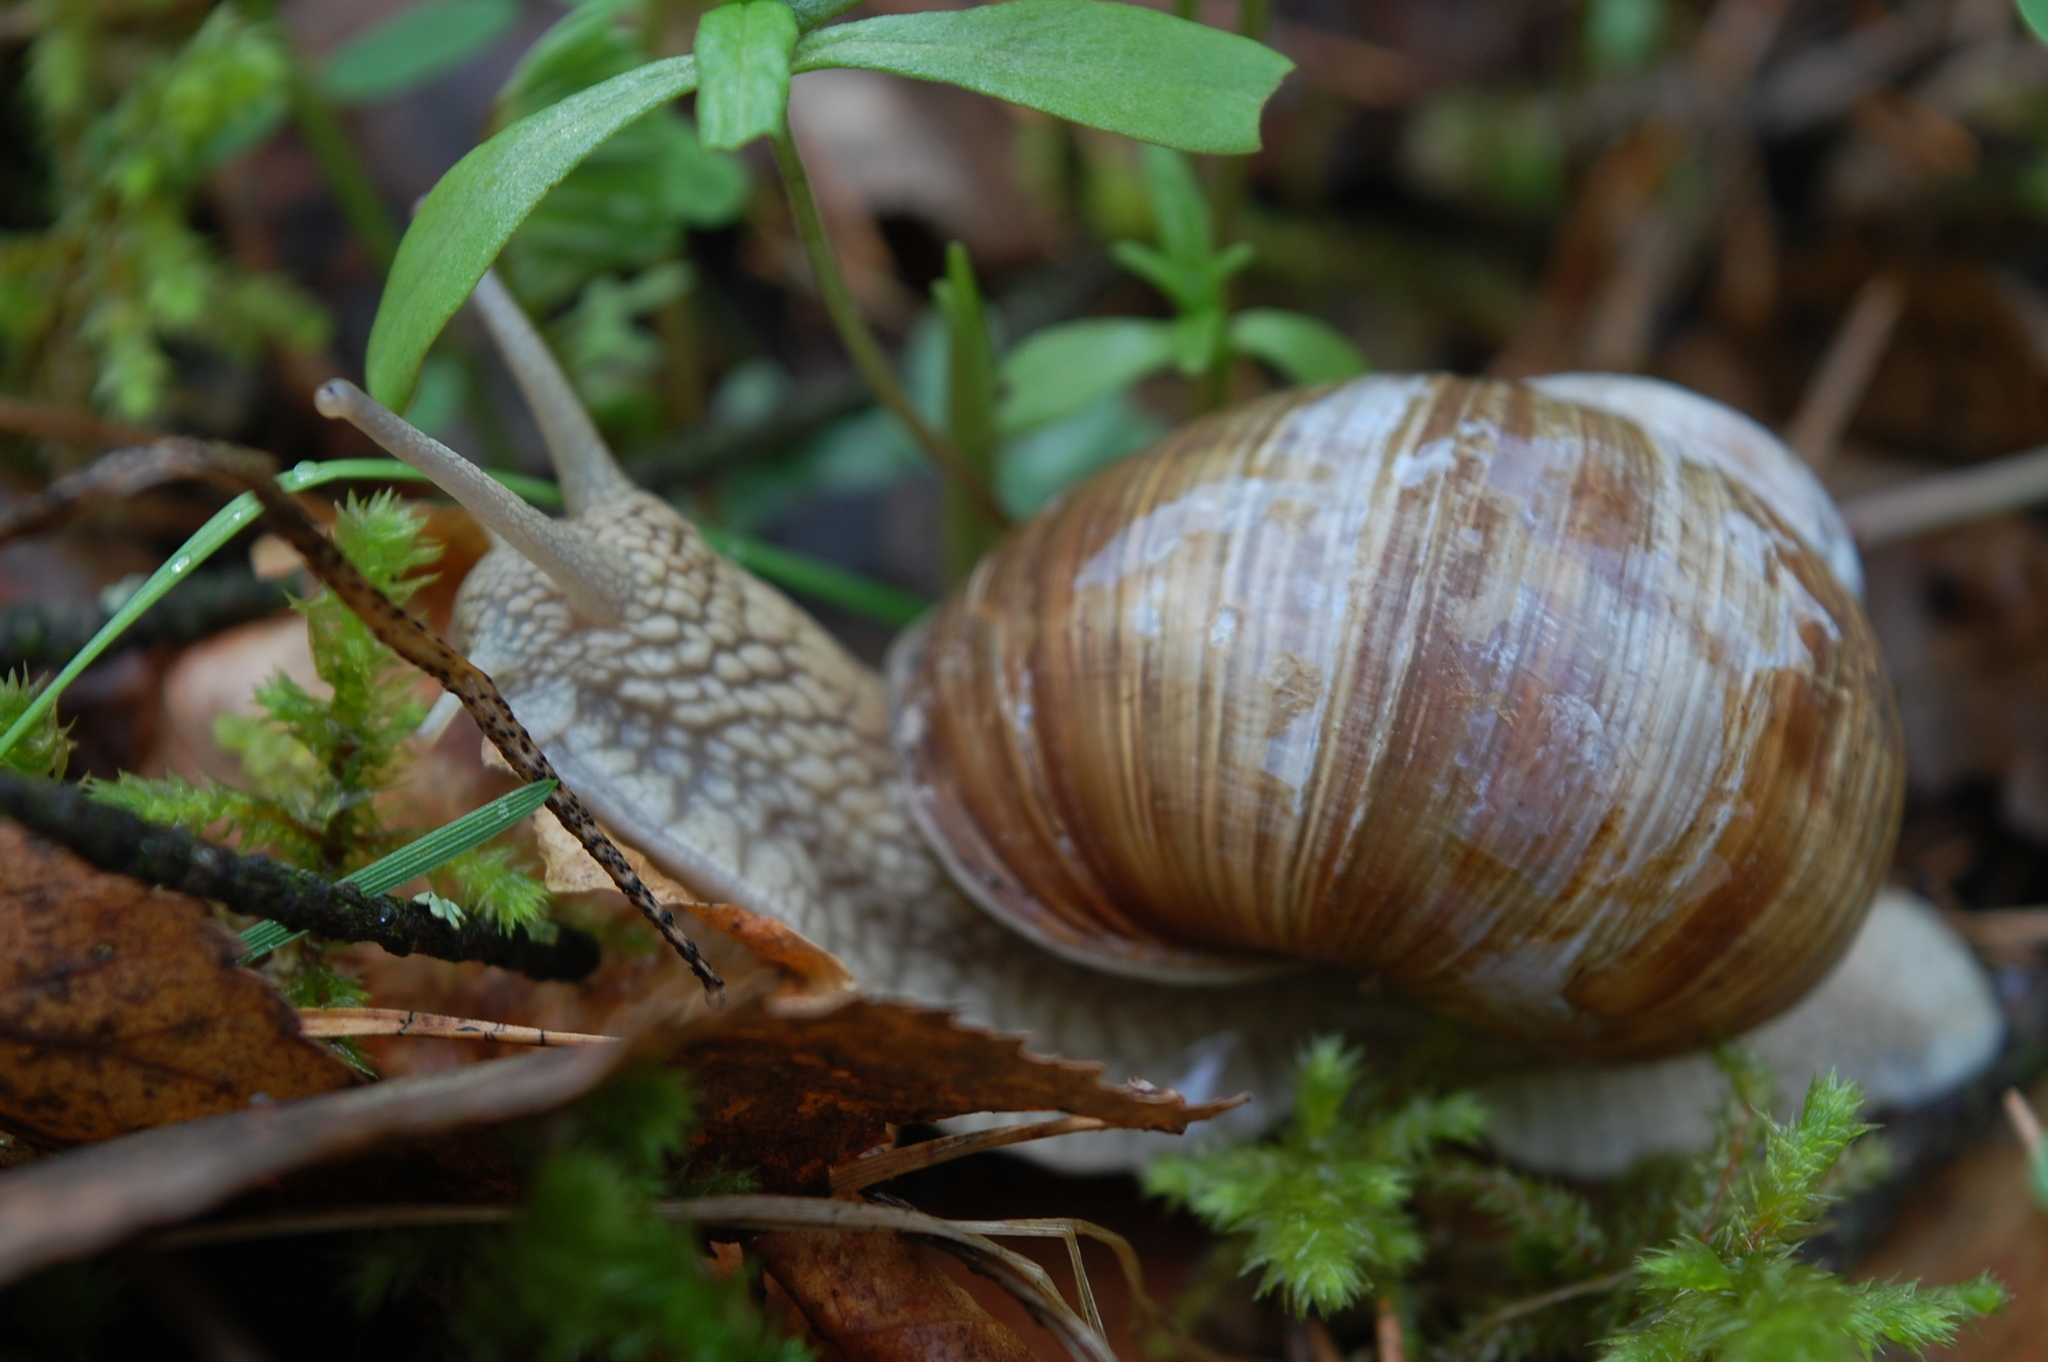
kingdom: Animalia
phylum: Mollusca
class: Gastropoda
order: Stylommatophora
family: Helicidae
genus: Helix
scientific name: Helix pomatia
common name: Roman snail
